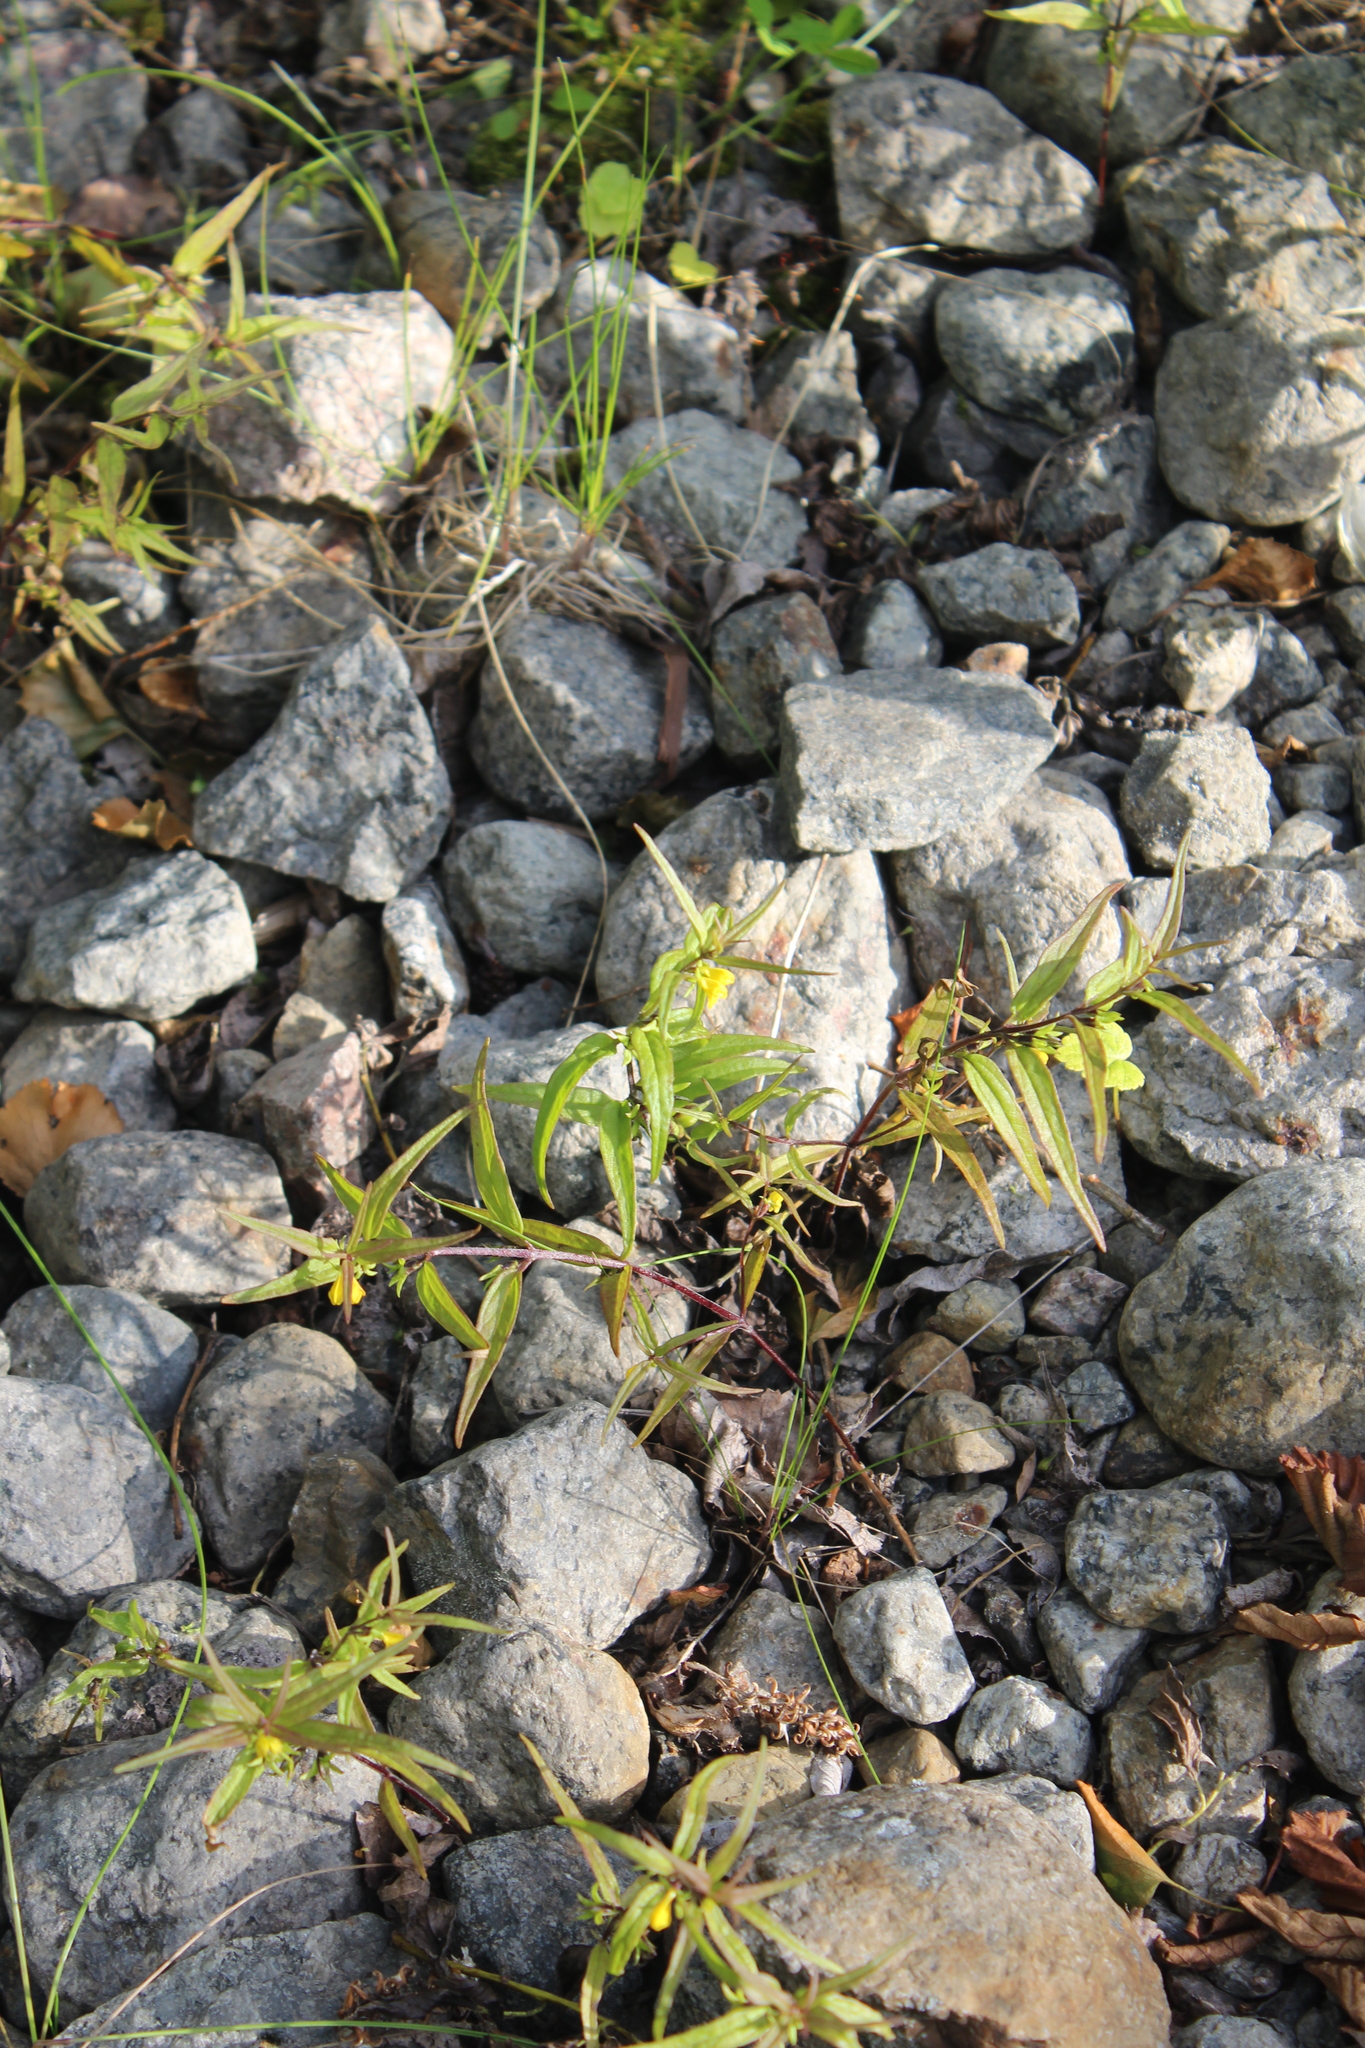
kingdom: Plantae
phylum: Tracheophyta
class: Magnoliopsida
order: Lamiales
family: Orobanchaceae
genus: Melampyrum
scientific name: Melampyrum sylvaticum
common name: Small cow-wheat
